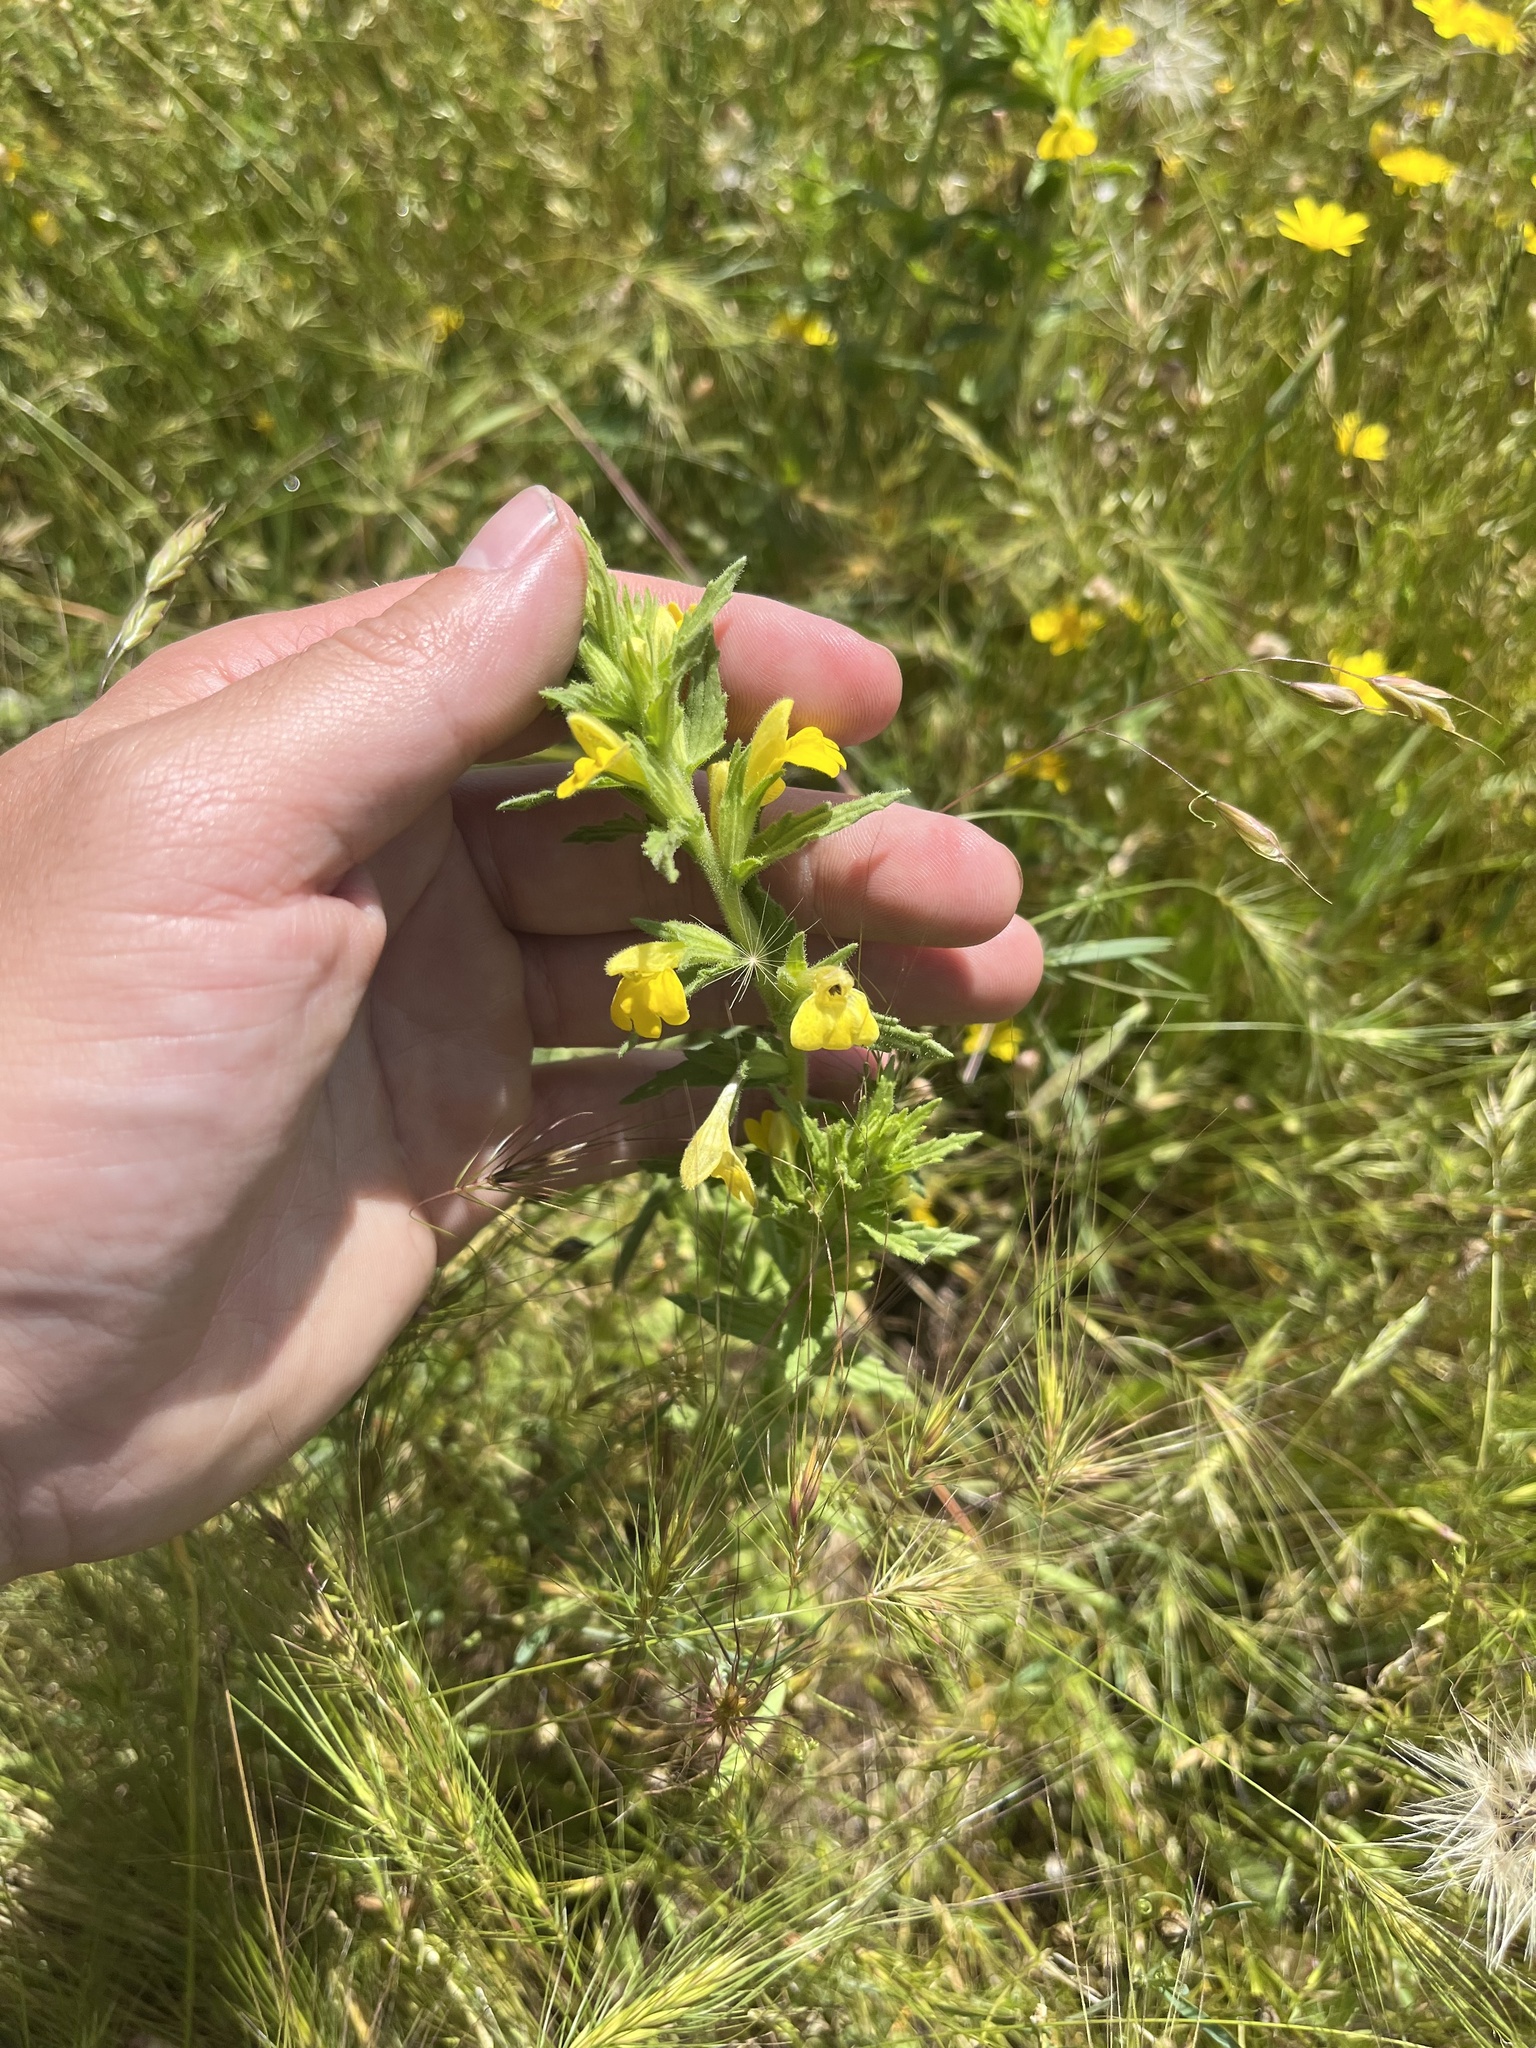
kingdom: Plantae
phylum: Tracheophyta
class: Magnoliopsida
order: Lamiales
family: Orobanchaceae
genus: Bellardia
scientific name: Bellardia viscosa
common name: Sticky parentucellia
